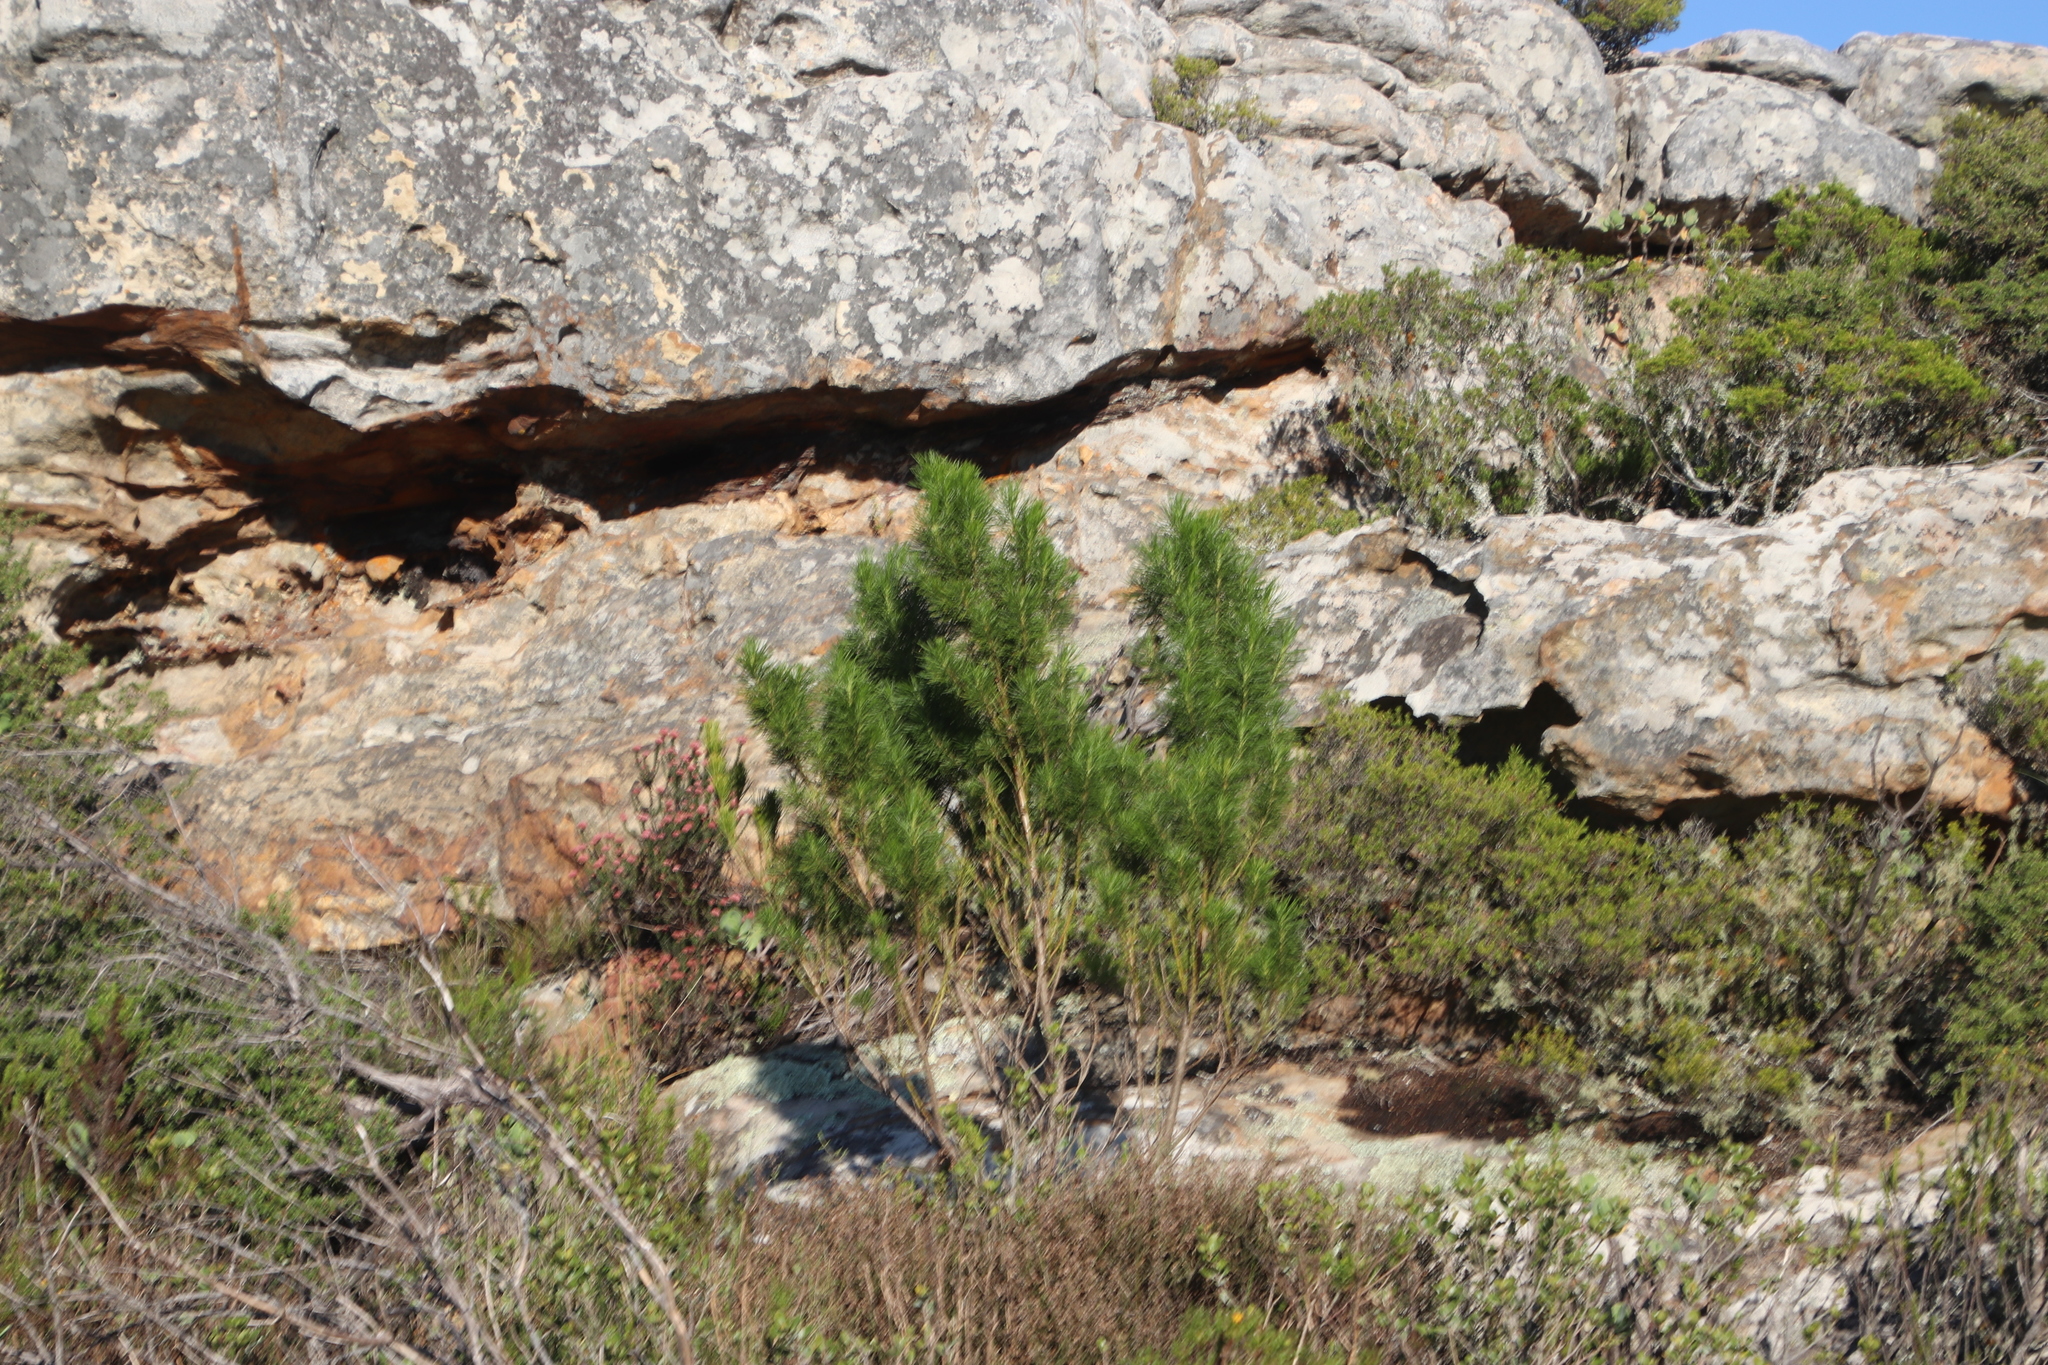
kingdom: Plantae
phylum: Tracheophyta
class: Magnoliopsida
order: Fabales
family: Fabaceae
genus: Psoralea
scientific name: Psoralea pinnata
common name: African scurfpea
